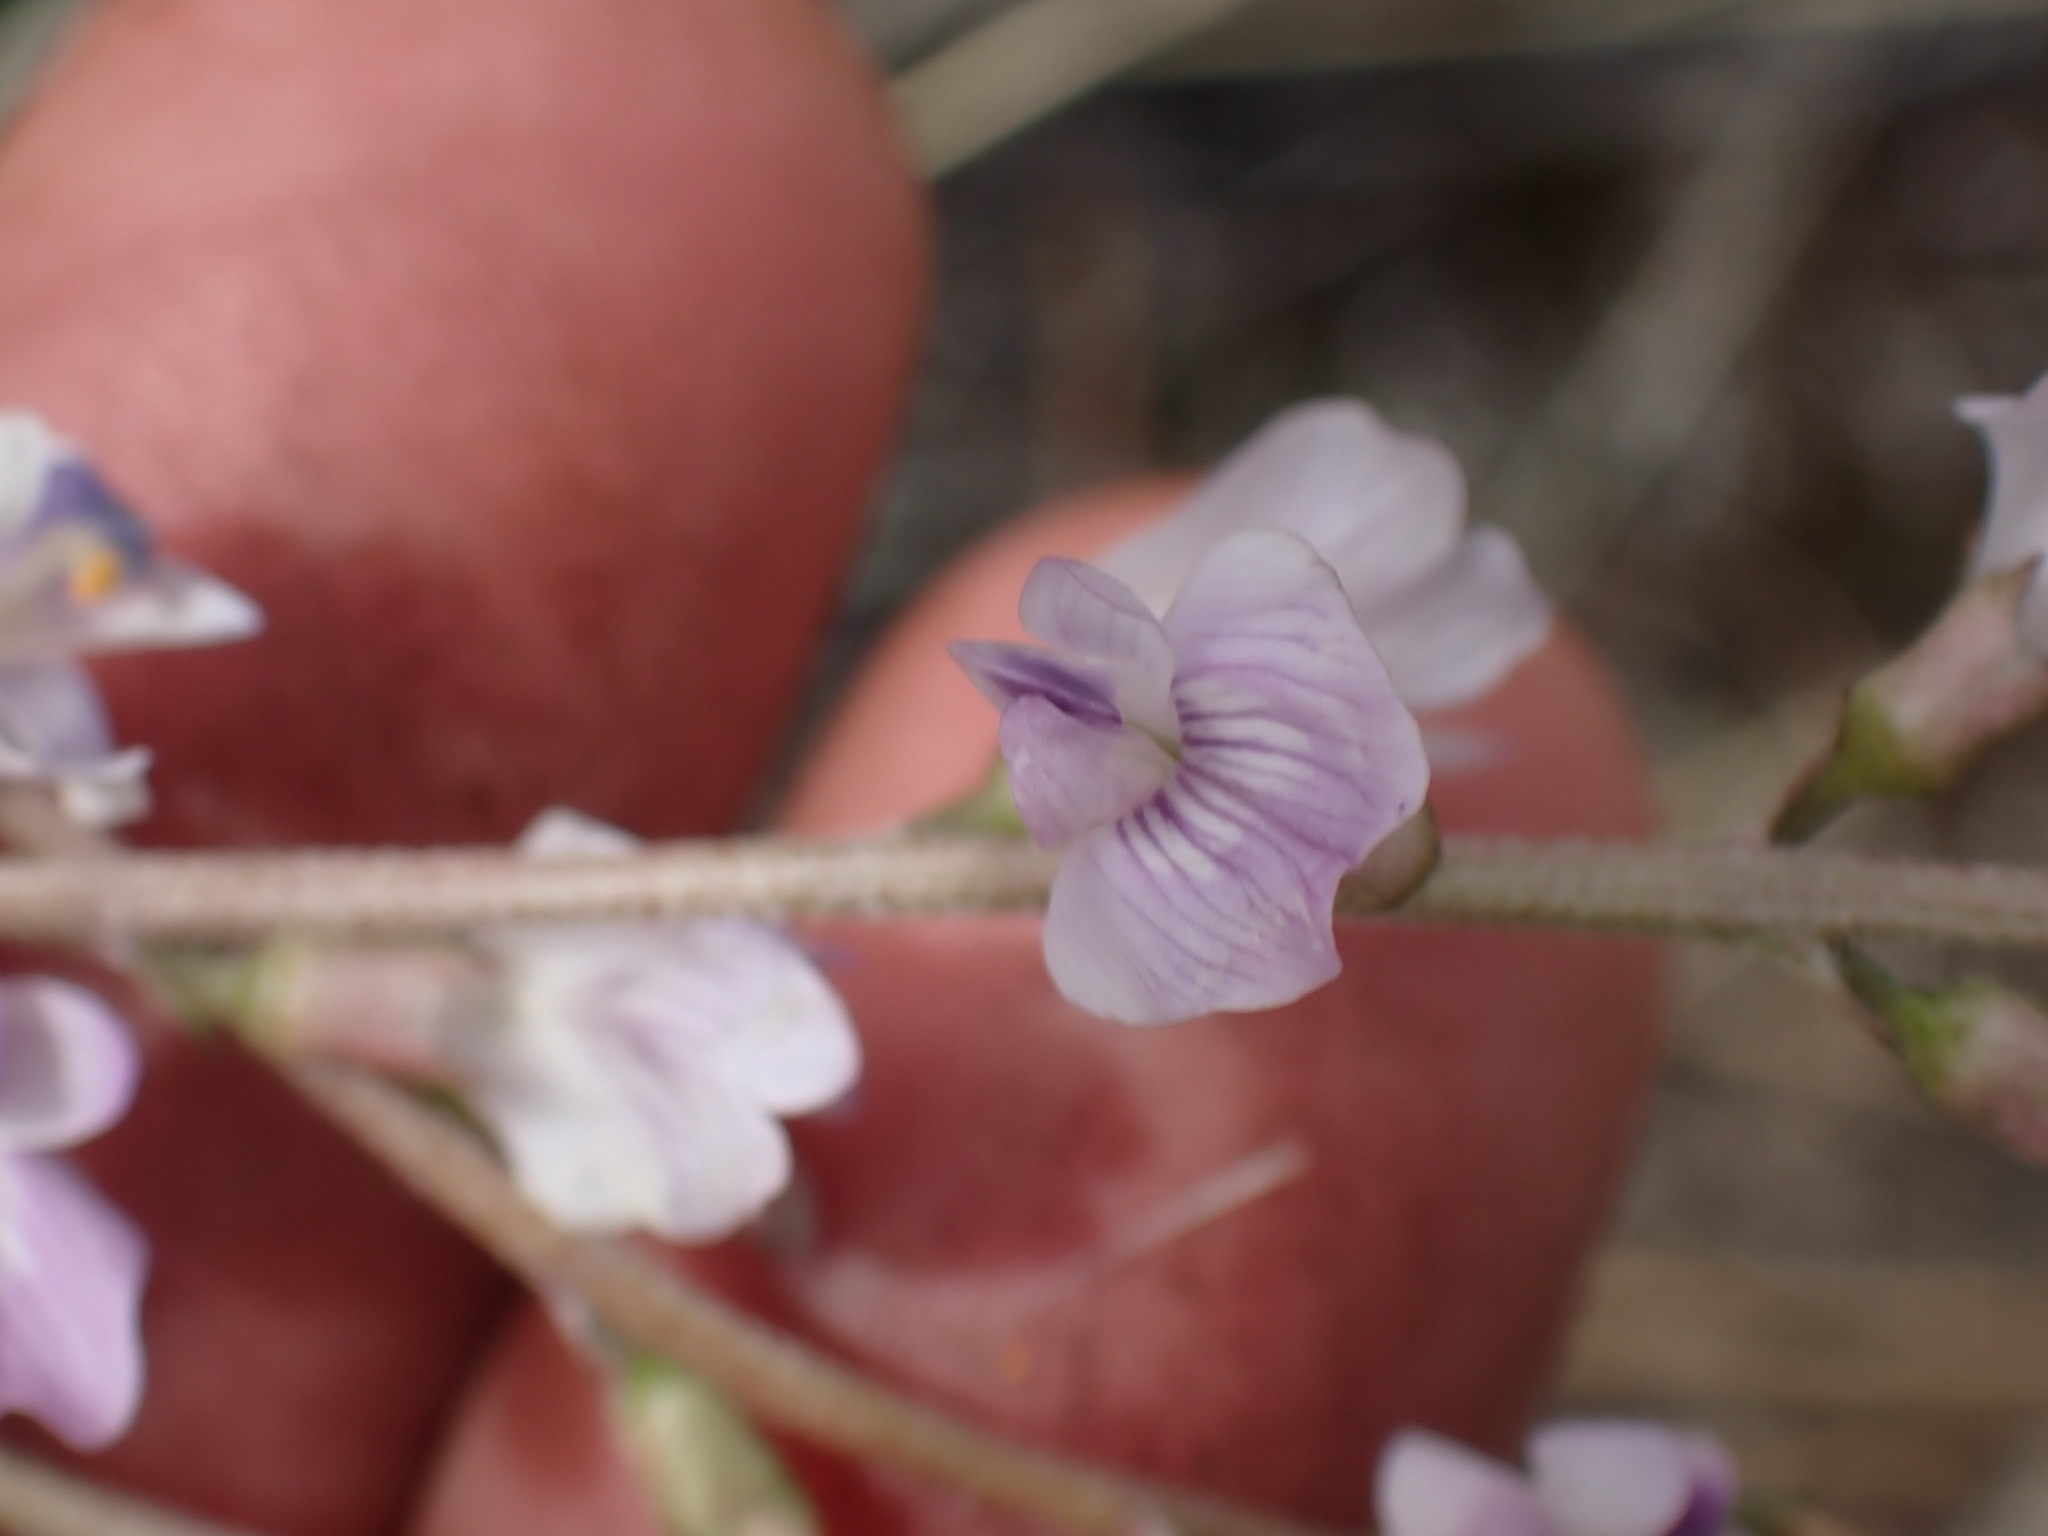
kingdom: Plantae
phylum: Tracheophyta
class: Magnoliopsida
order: Fabales
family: Fabaceae
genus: Astragalus
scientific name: Astragalus miser
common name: Timber milkvetch
